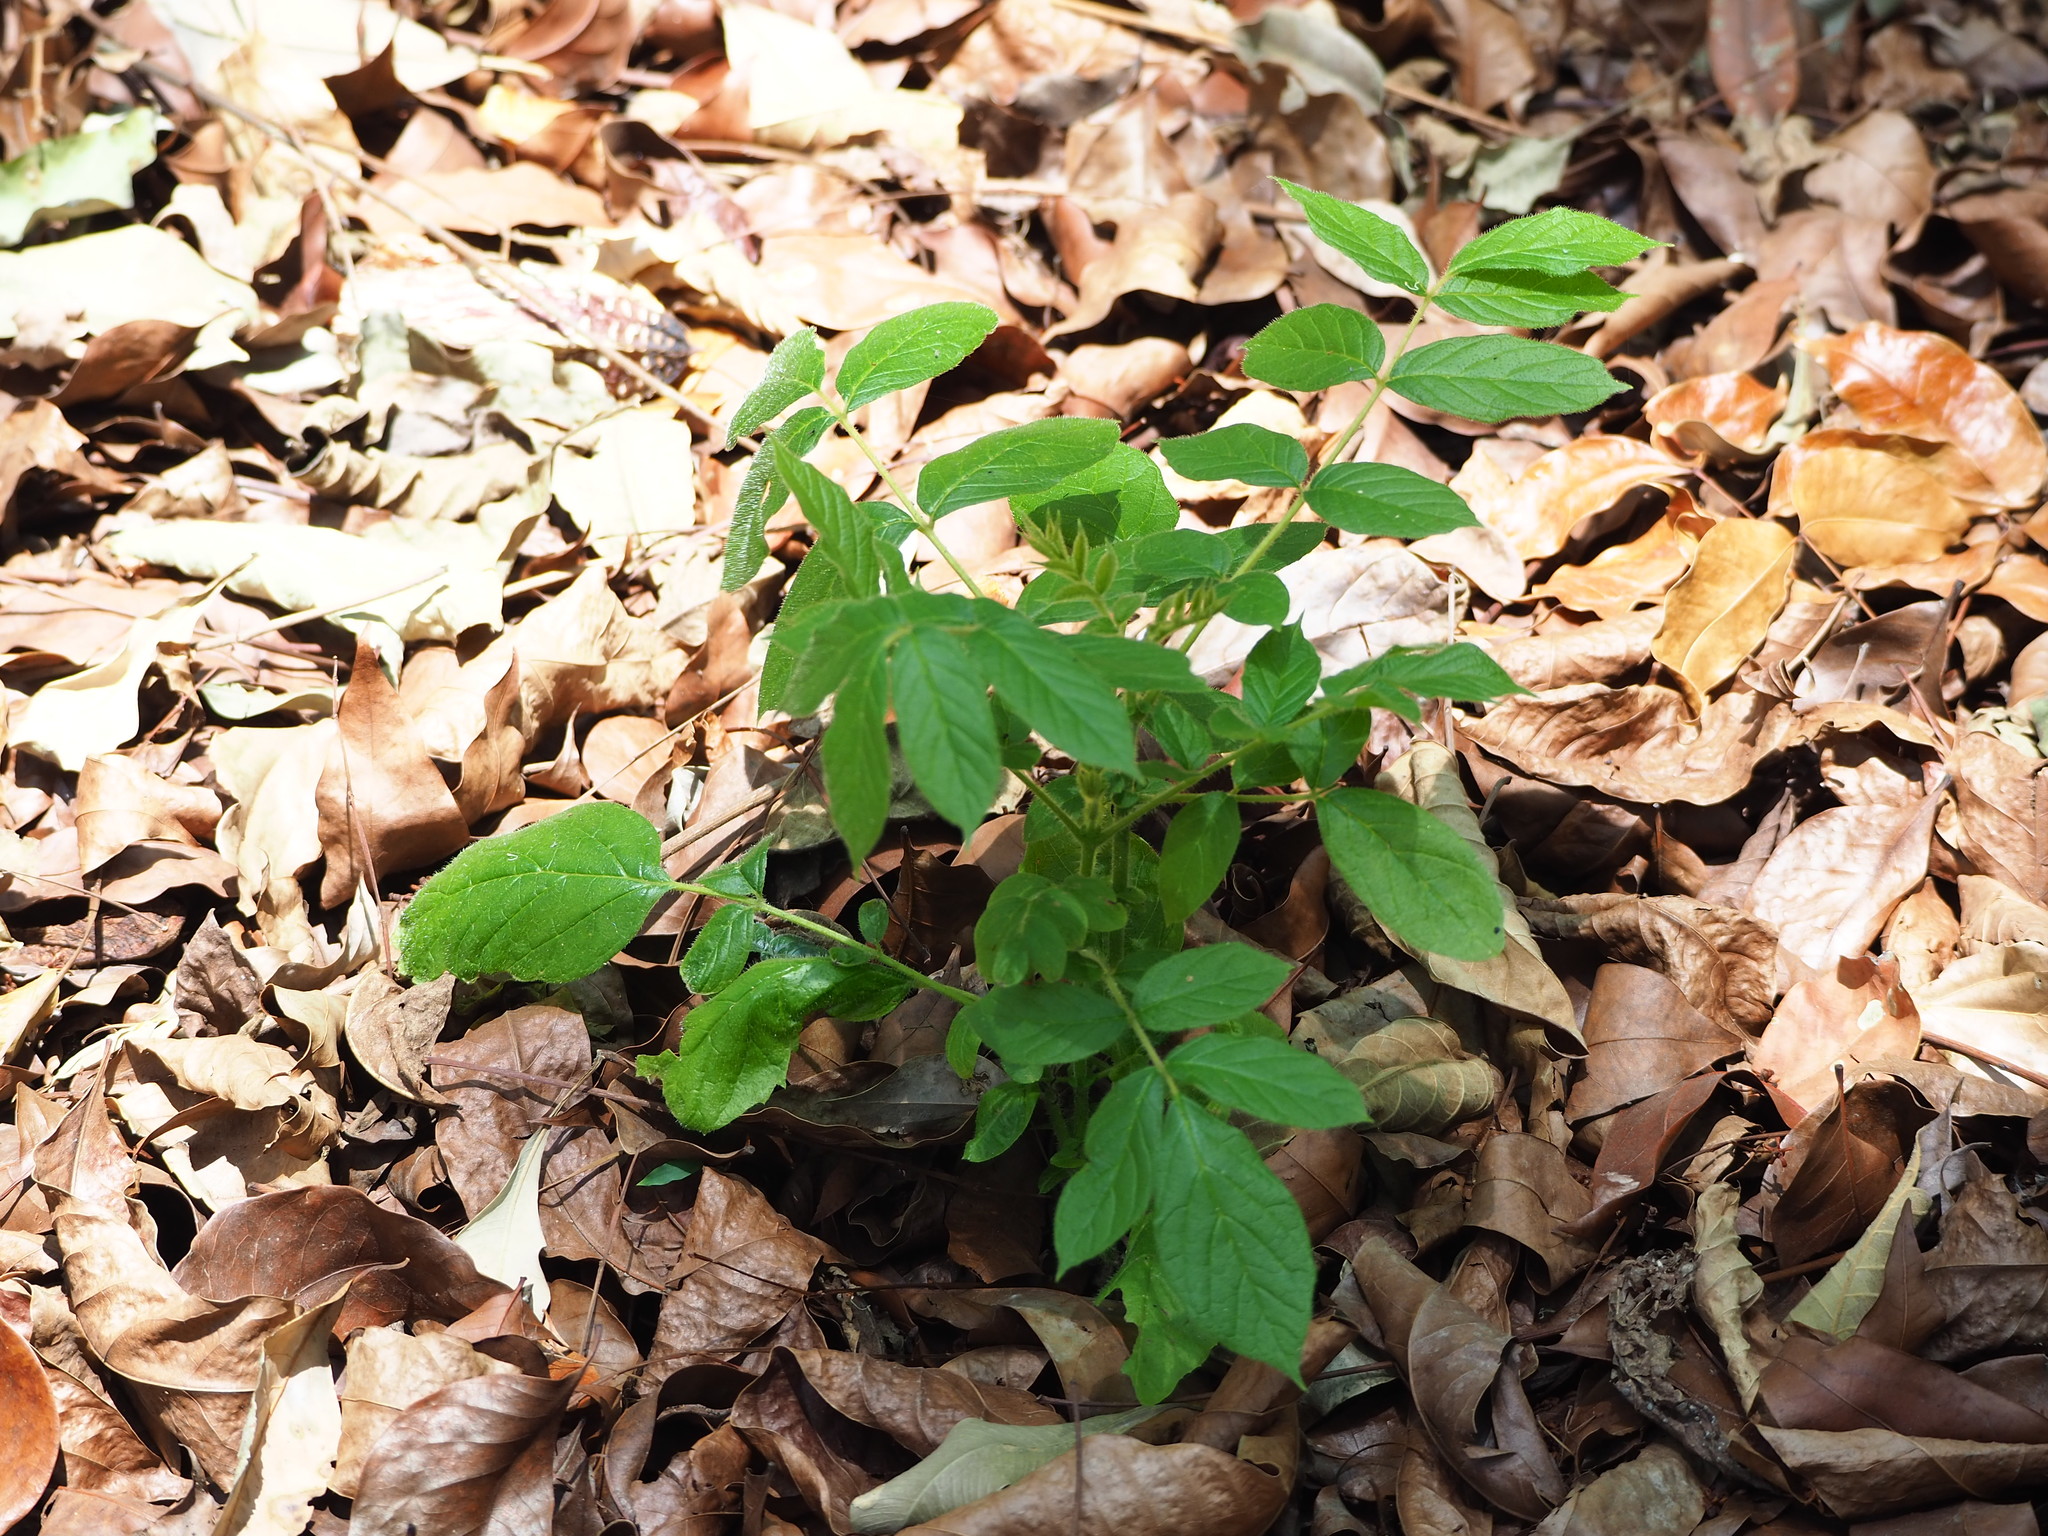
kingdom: Plantae
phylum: Tracheophyta
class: Magnoliopsida
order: Lamiales
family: Bignoniaceae
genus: Spathodea
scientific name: Spathodea campanulata
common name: African tuliptree
